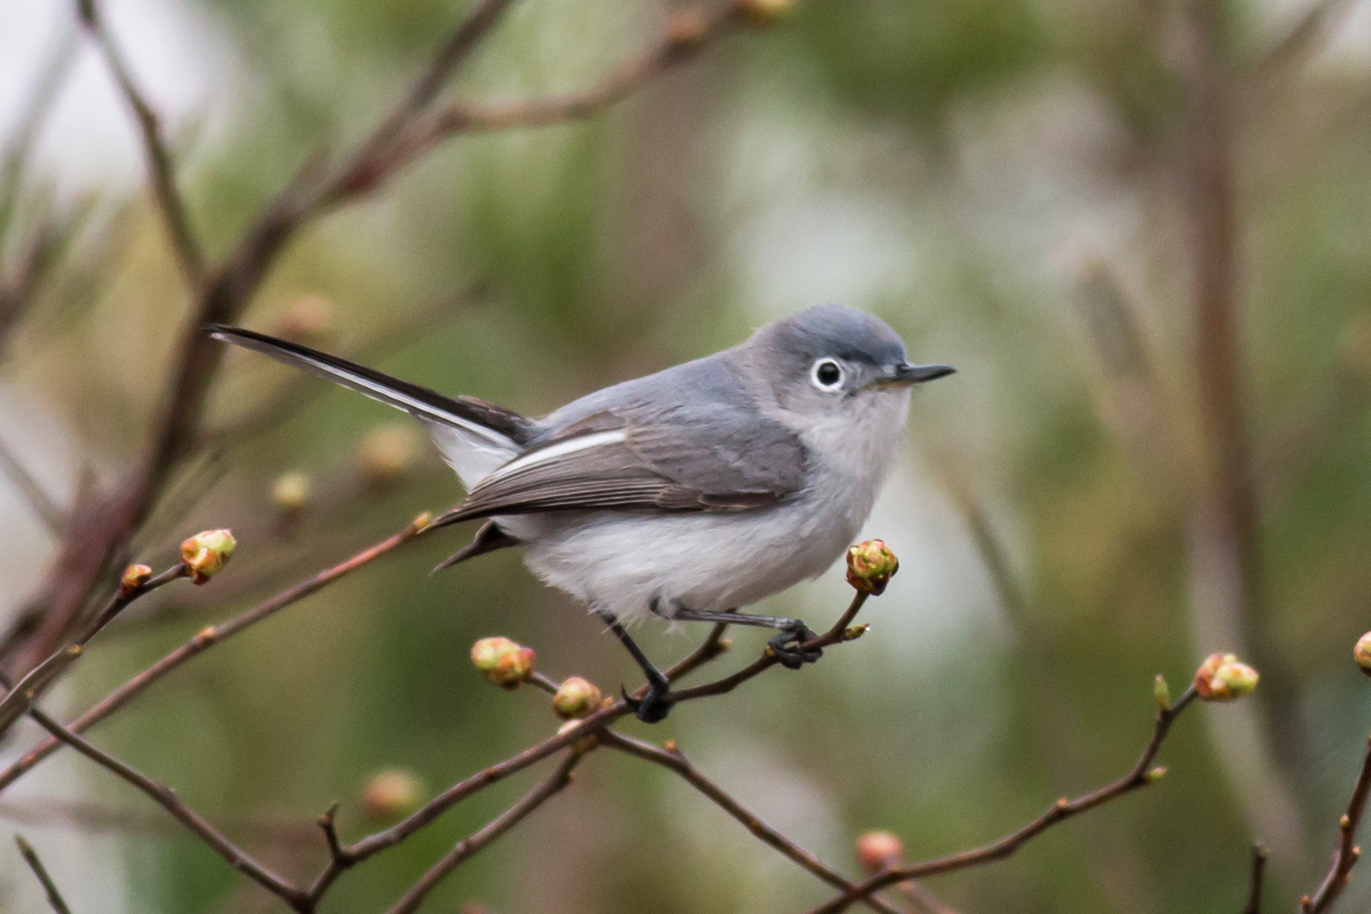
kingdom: Animalia
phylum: Chordata
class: Aves
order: Passeriformes
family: Polioptilidae
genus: Polioptila
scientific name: Polioptila caerulea
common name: Blue-gray gnatcatcher
